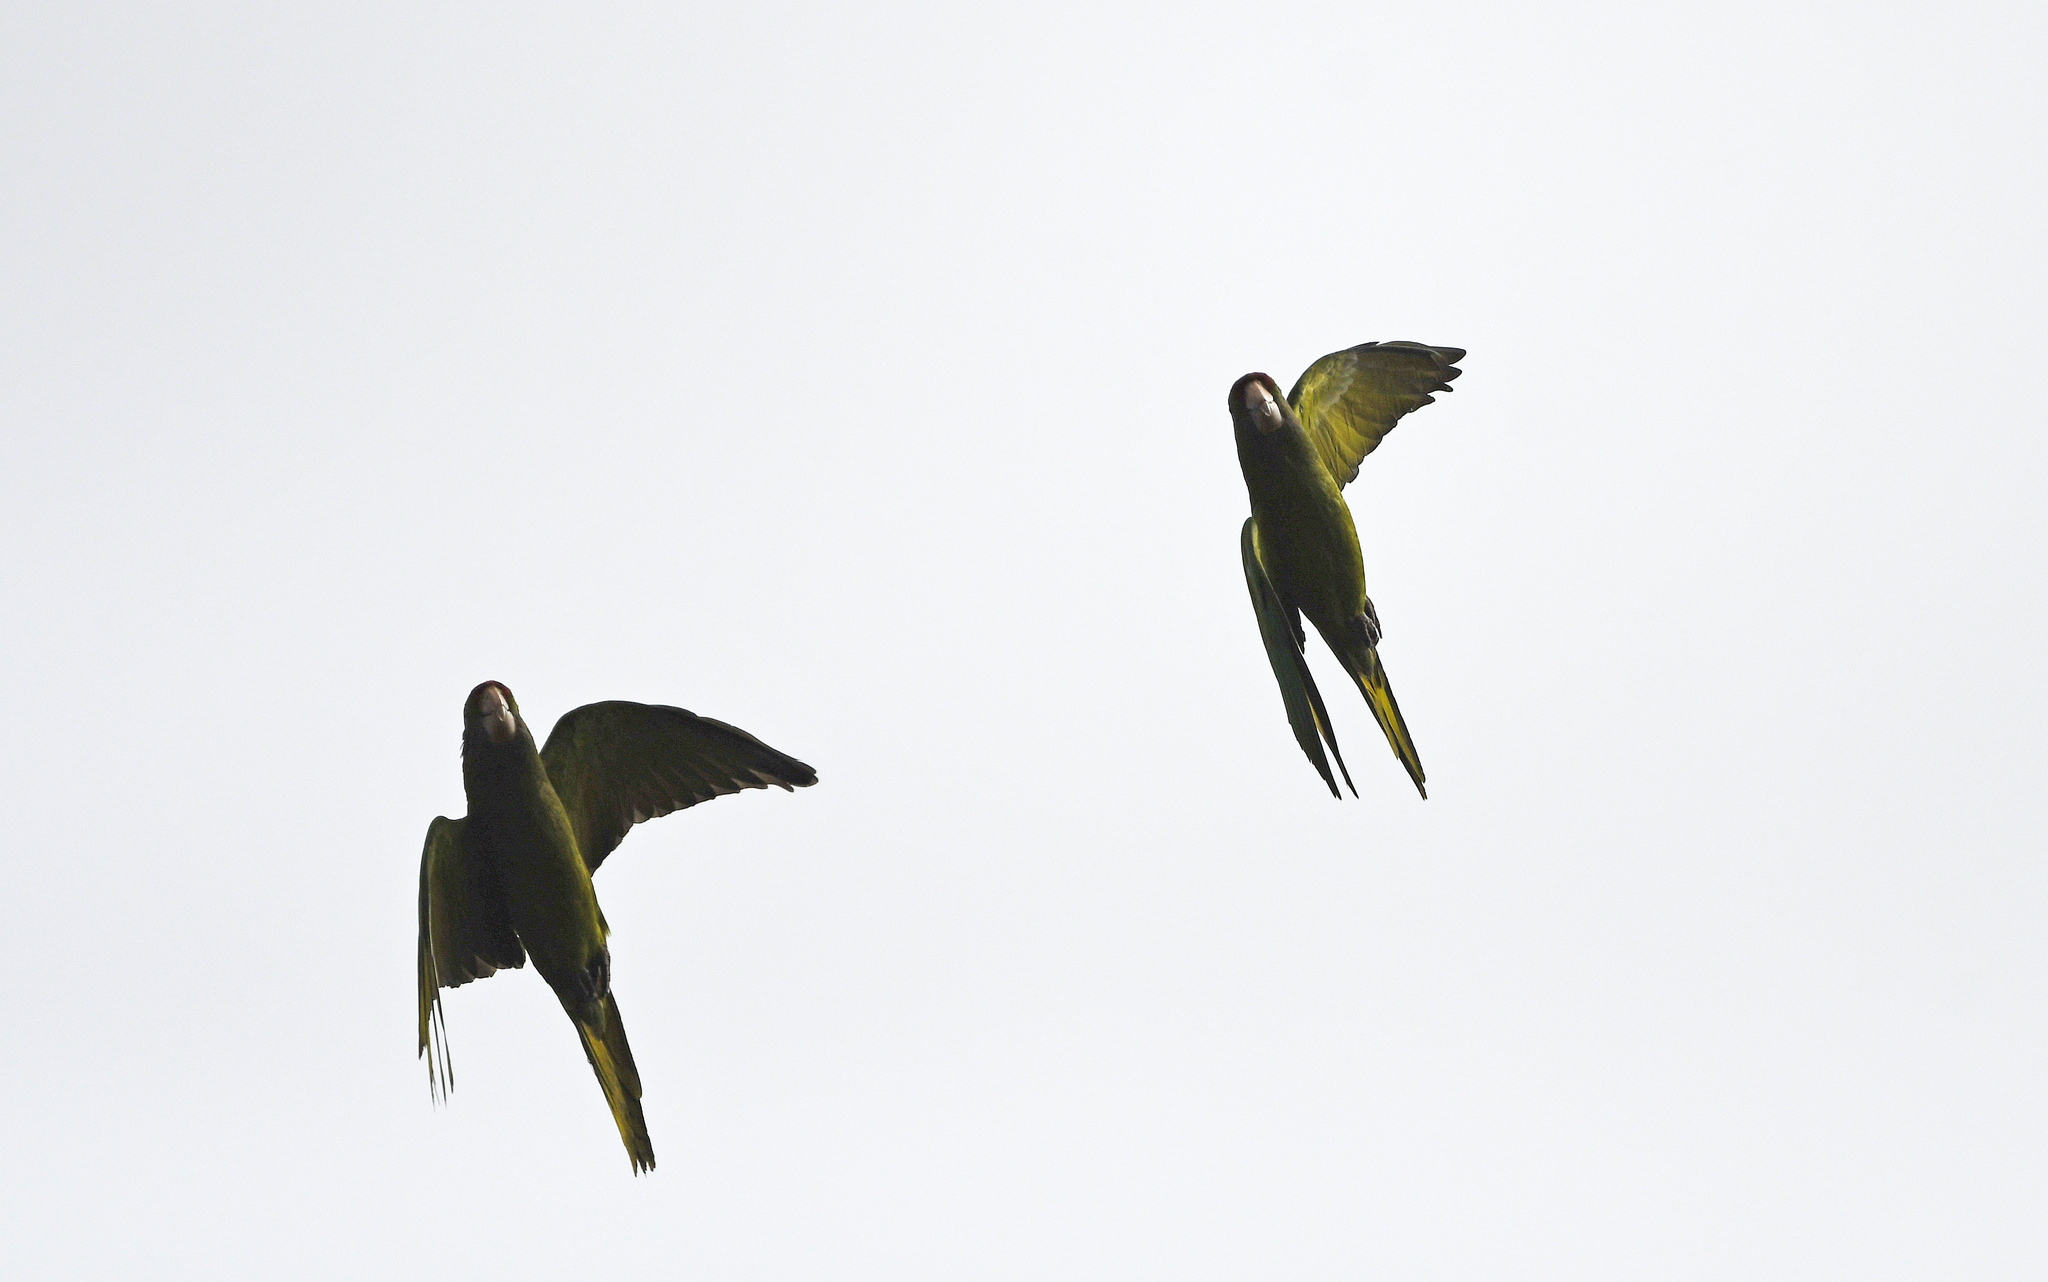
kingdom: Animalia
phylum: Chordata
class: Aves
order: Psittaciformes
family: Psittacidae
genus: Aratinga
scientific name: Aratinga wagleri
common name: Scarlet-fronted parakeet
